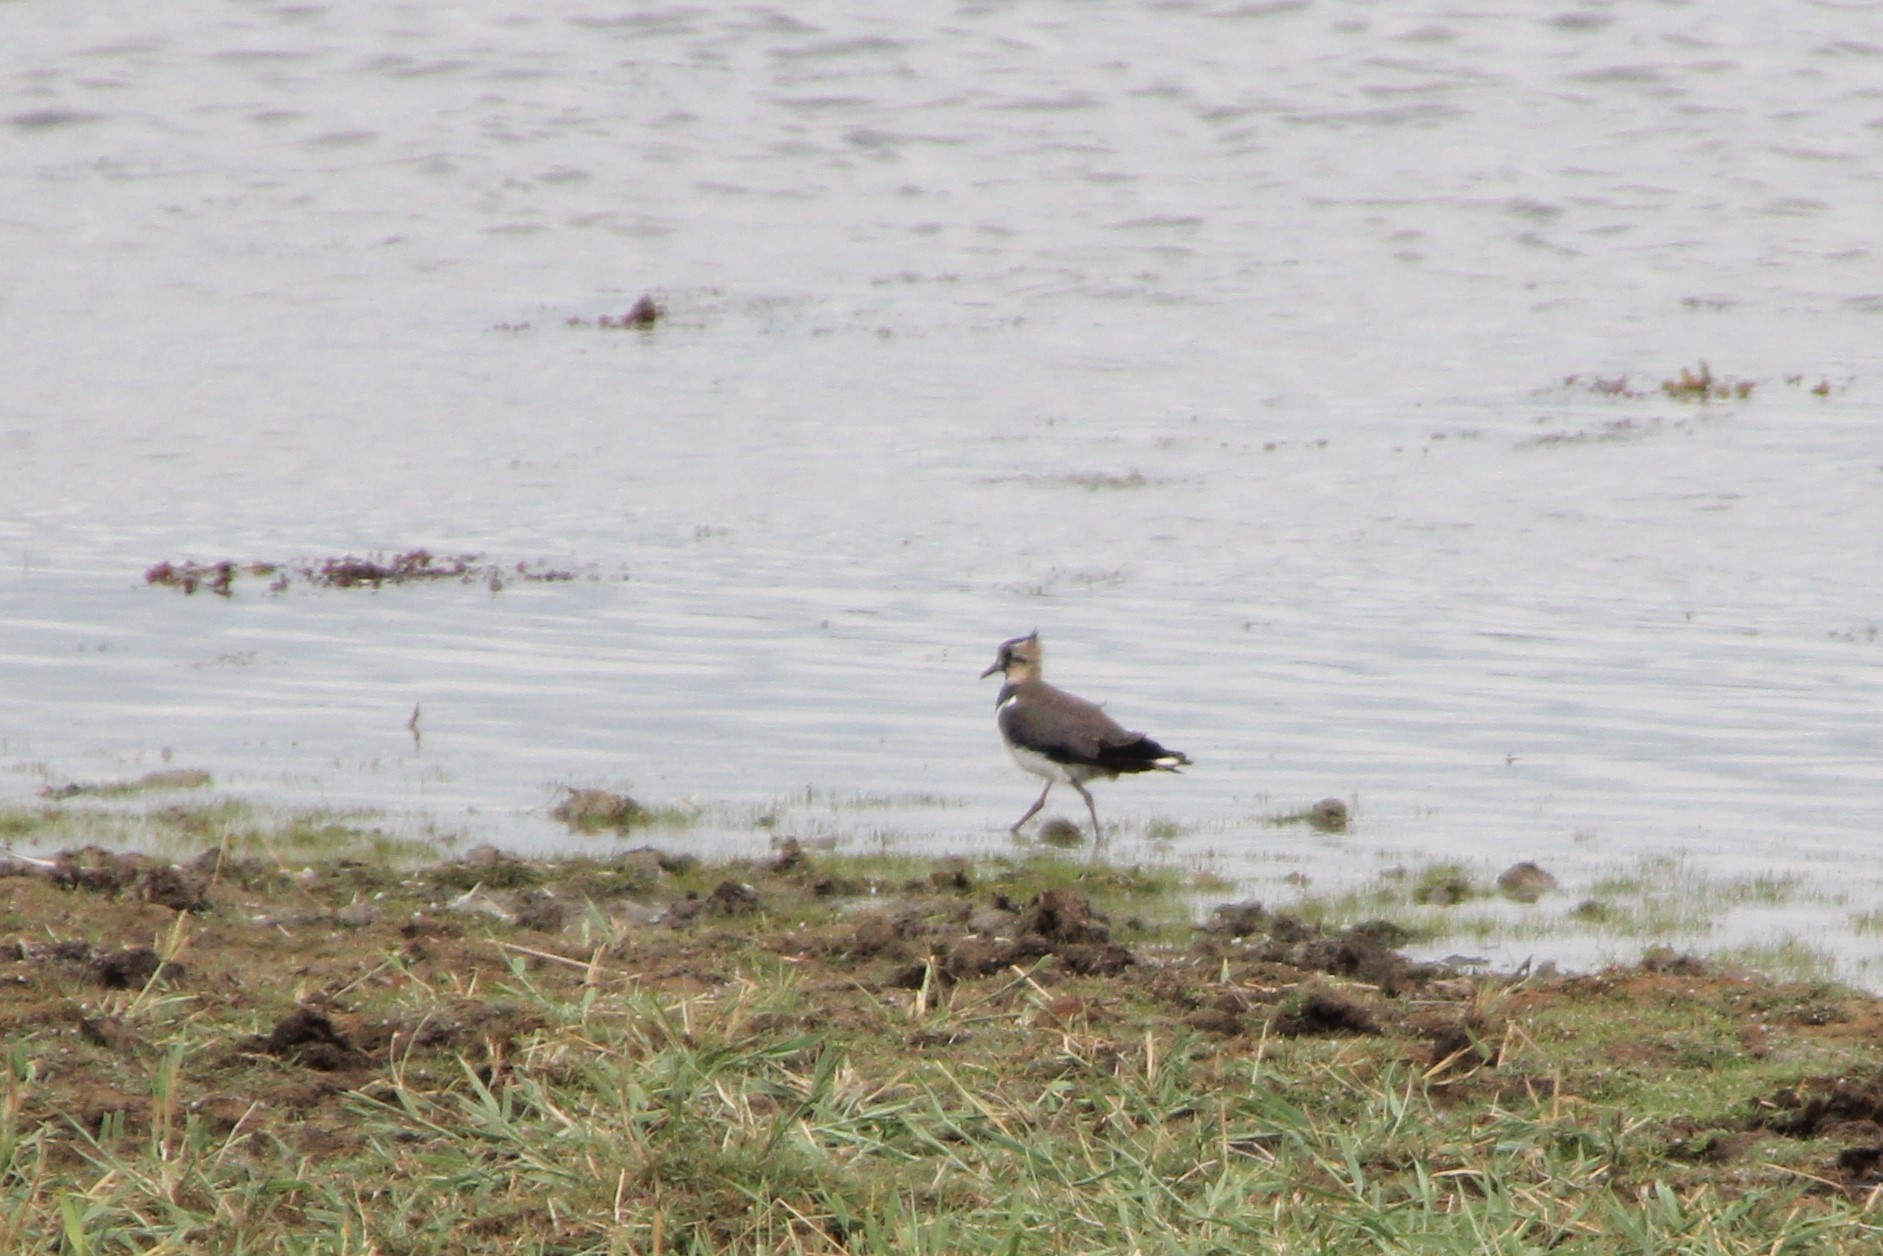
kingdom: Animalia
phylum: Chordata
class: Aves
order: Charadriiformes
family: Charadriidae
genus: Vanellus
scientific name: Vanellus vanellus
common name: Northern lapwing
